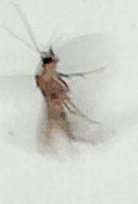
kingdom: Animalia
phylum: Arthropoda
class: Insecta
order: Lepidoptera
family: Geometridae
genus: Pasiphilodes
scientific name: Pasiphilodes testulata
